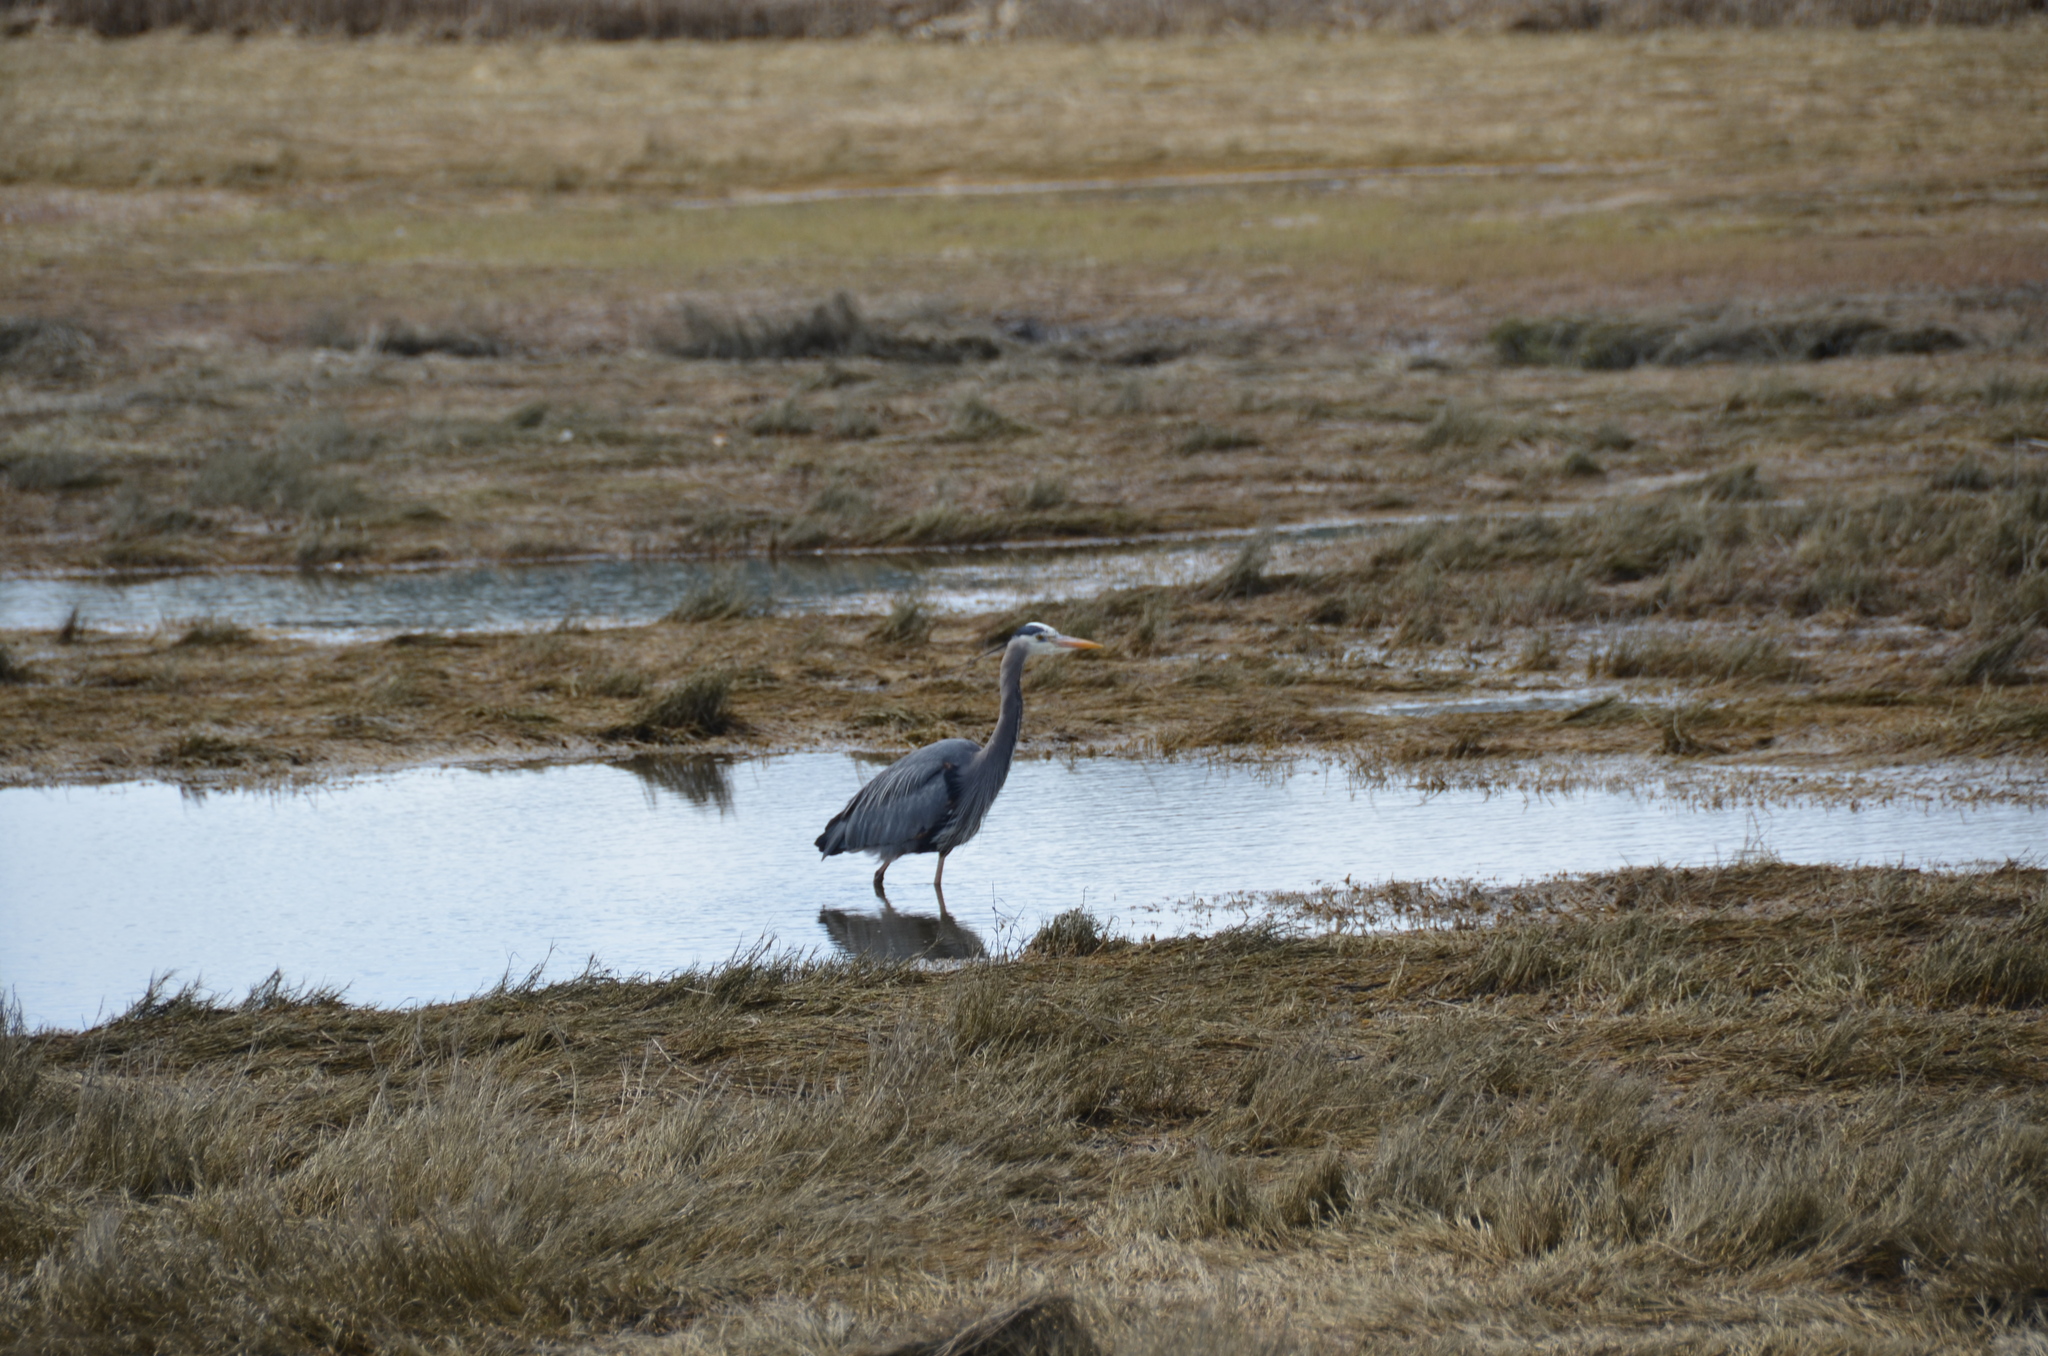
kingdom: Animalia
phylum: Chordata
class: Aves
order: Pelecaniformes
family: Ardeidae
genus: Ardea
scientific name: Ardea herodias
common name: Great blue heron
